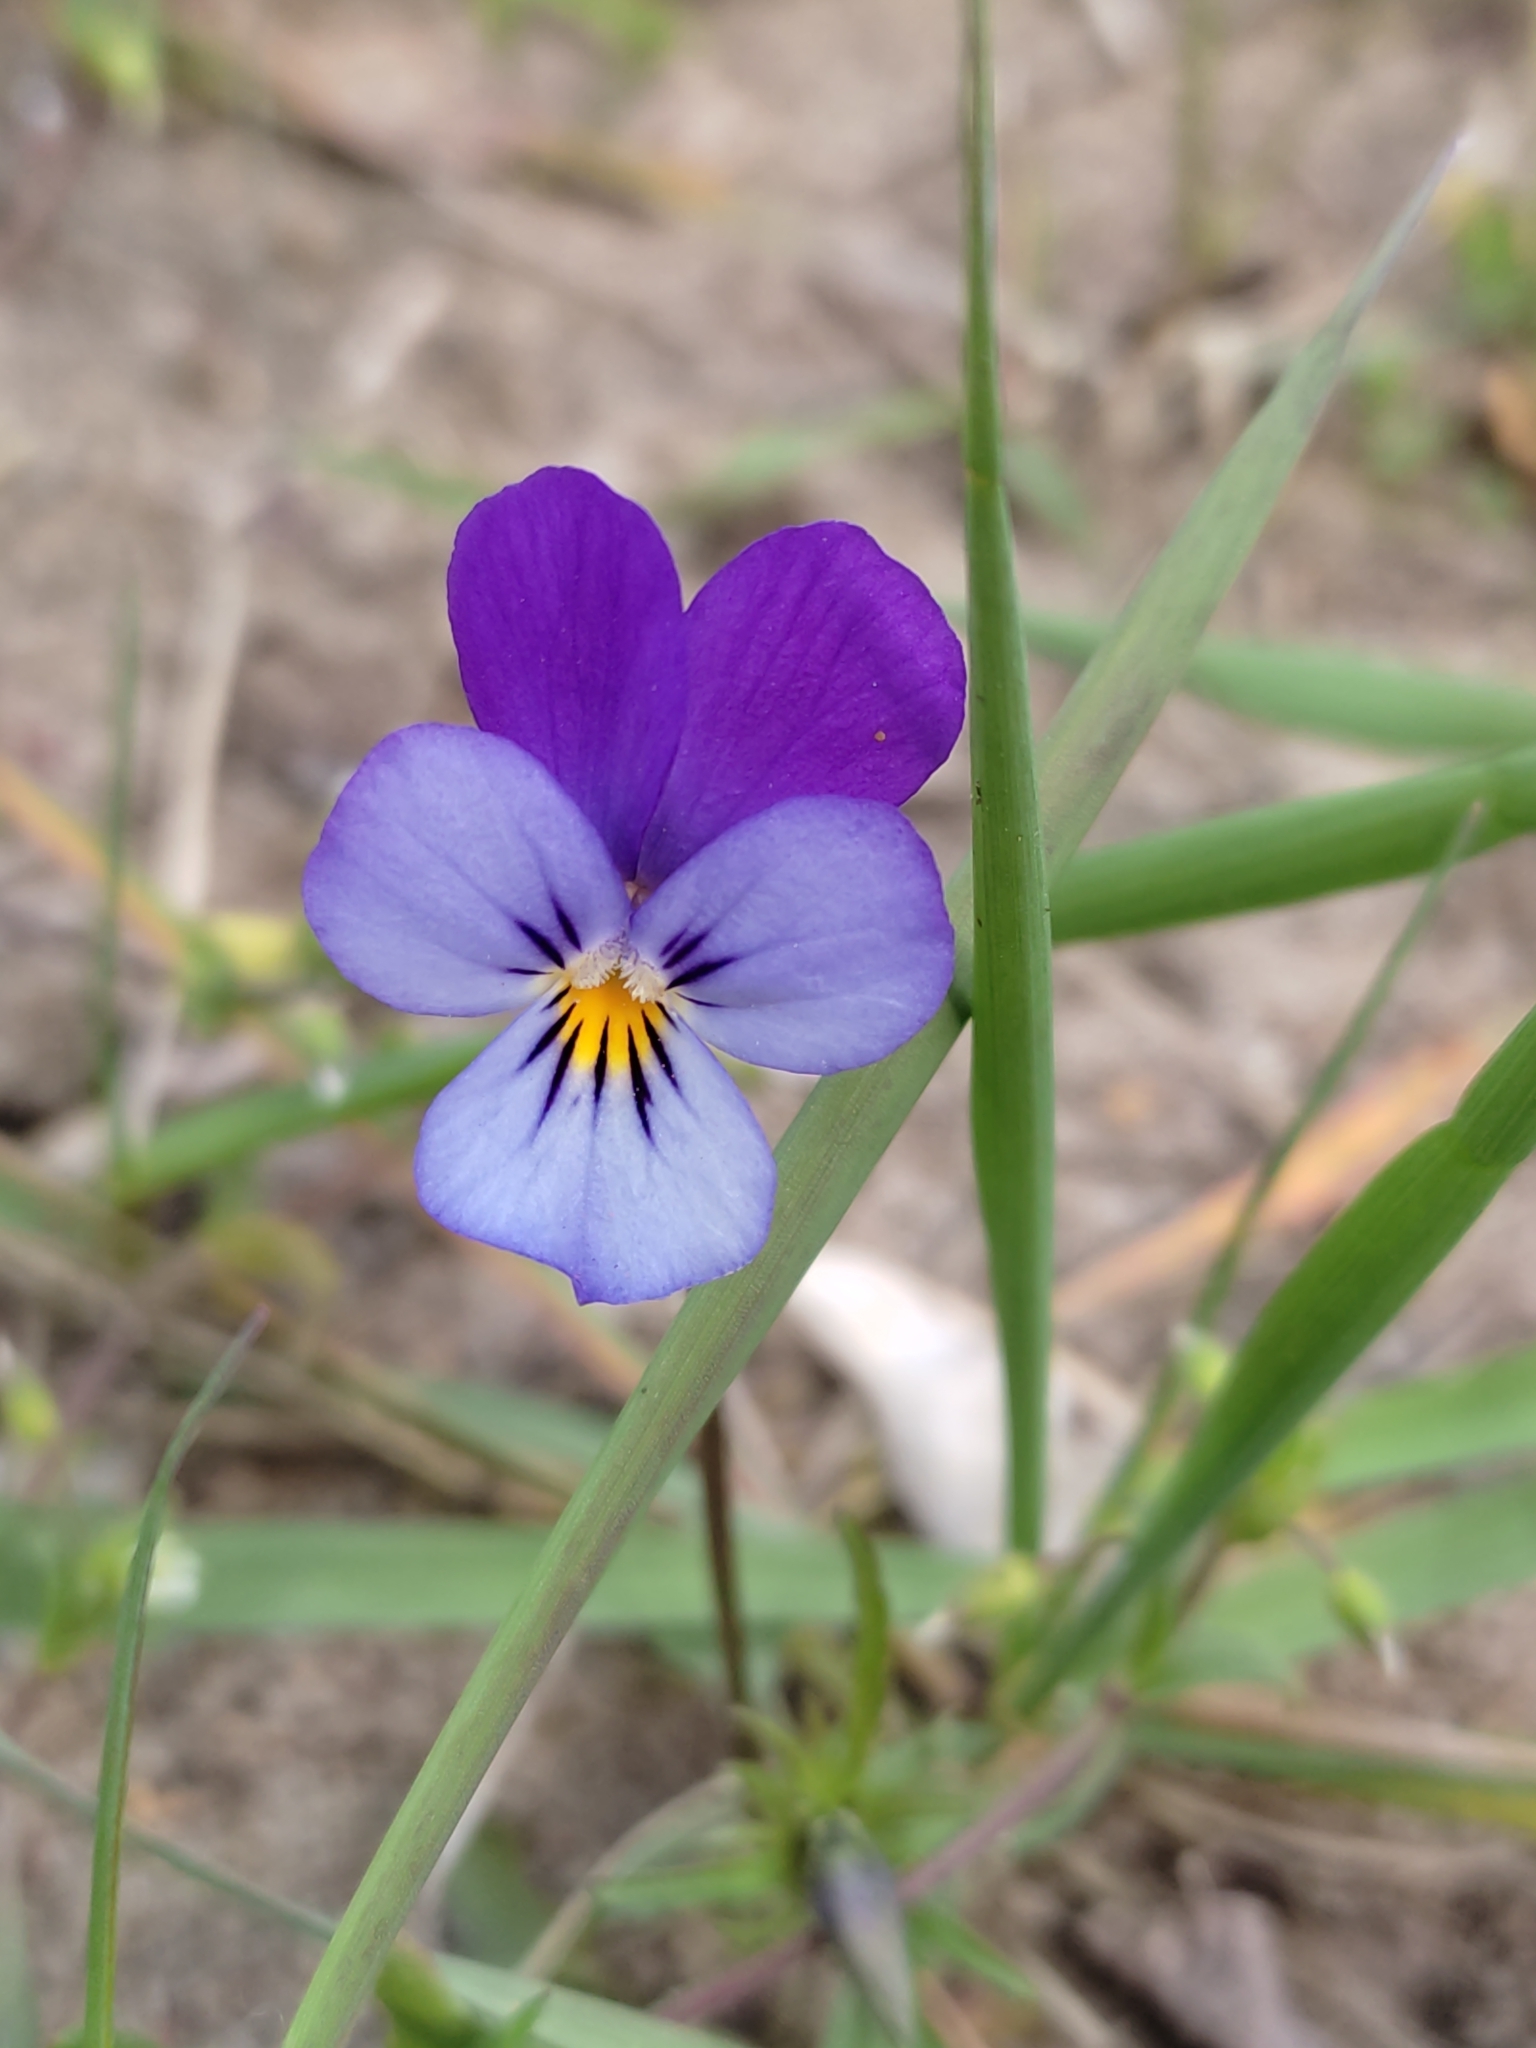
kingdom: Plantae
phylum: Tracheophyta
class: Magnoliopsida
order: Malpighiales
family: Violaceae
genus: Viola
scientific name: Viola tricolor
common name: Pansy
